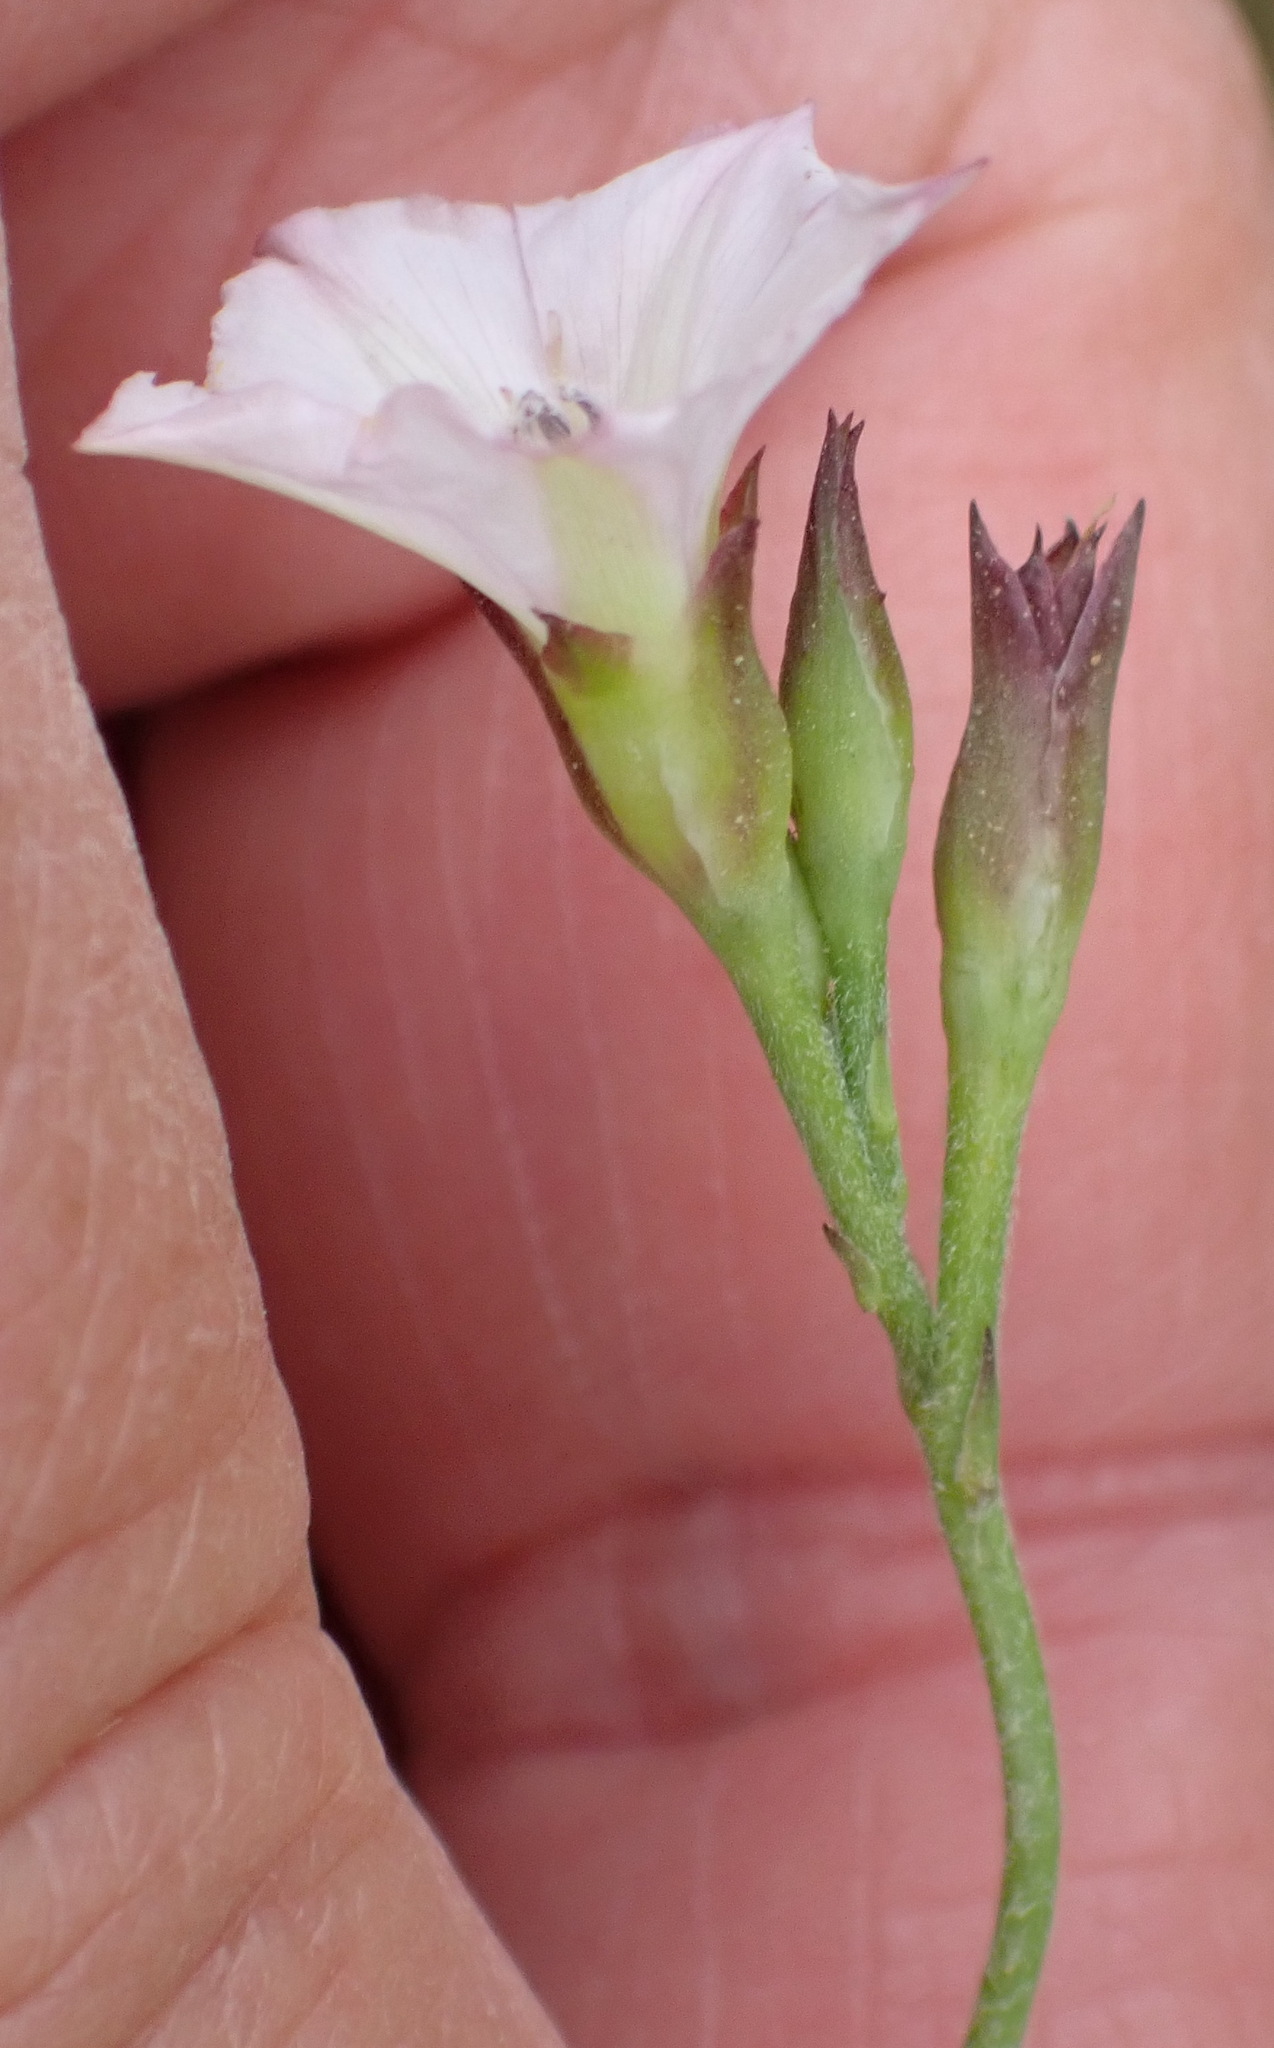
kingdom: Plantae
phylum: Tracheophyta
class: Magnoliopsida
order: Solanales
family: Convolvulaceae
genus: Convolvulus
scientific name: Convolvulus farinosus
